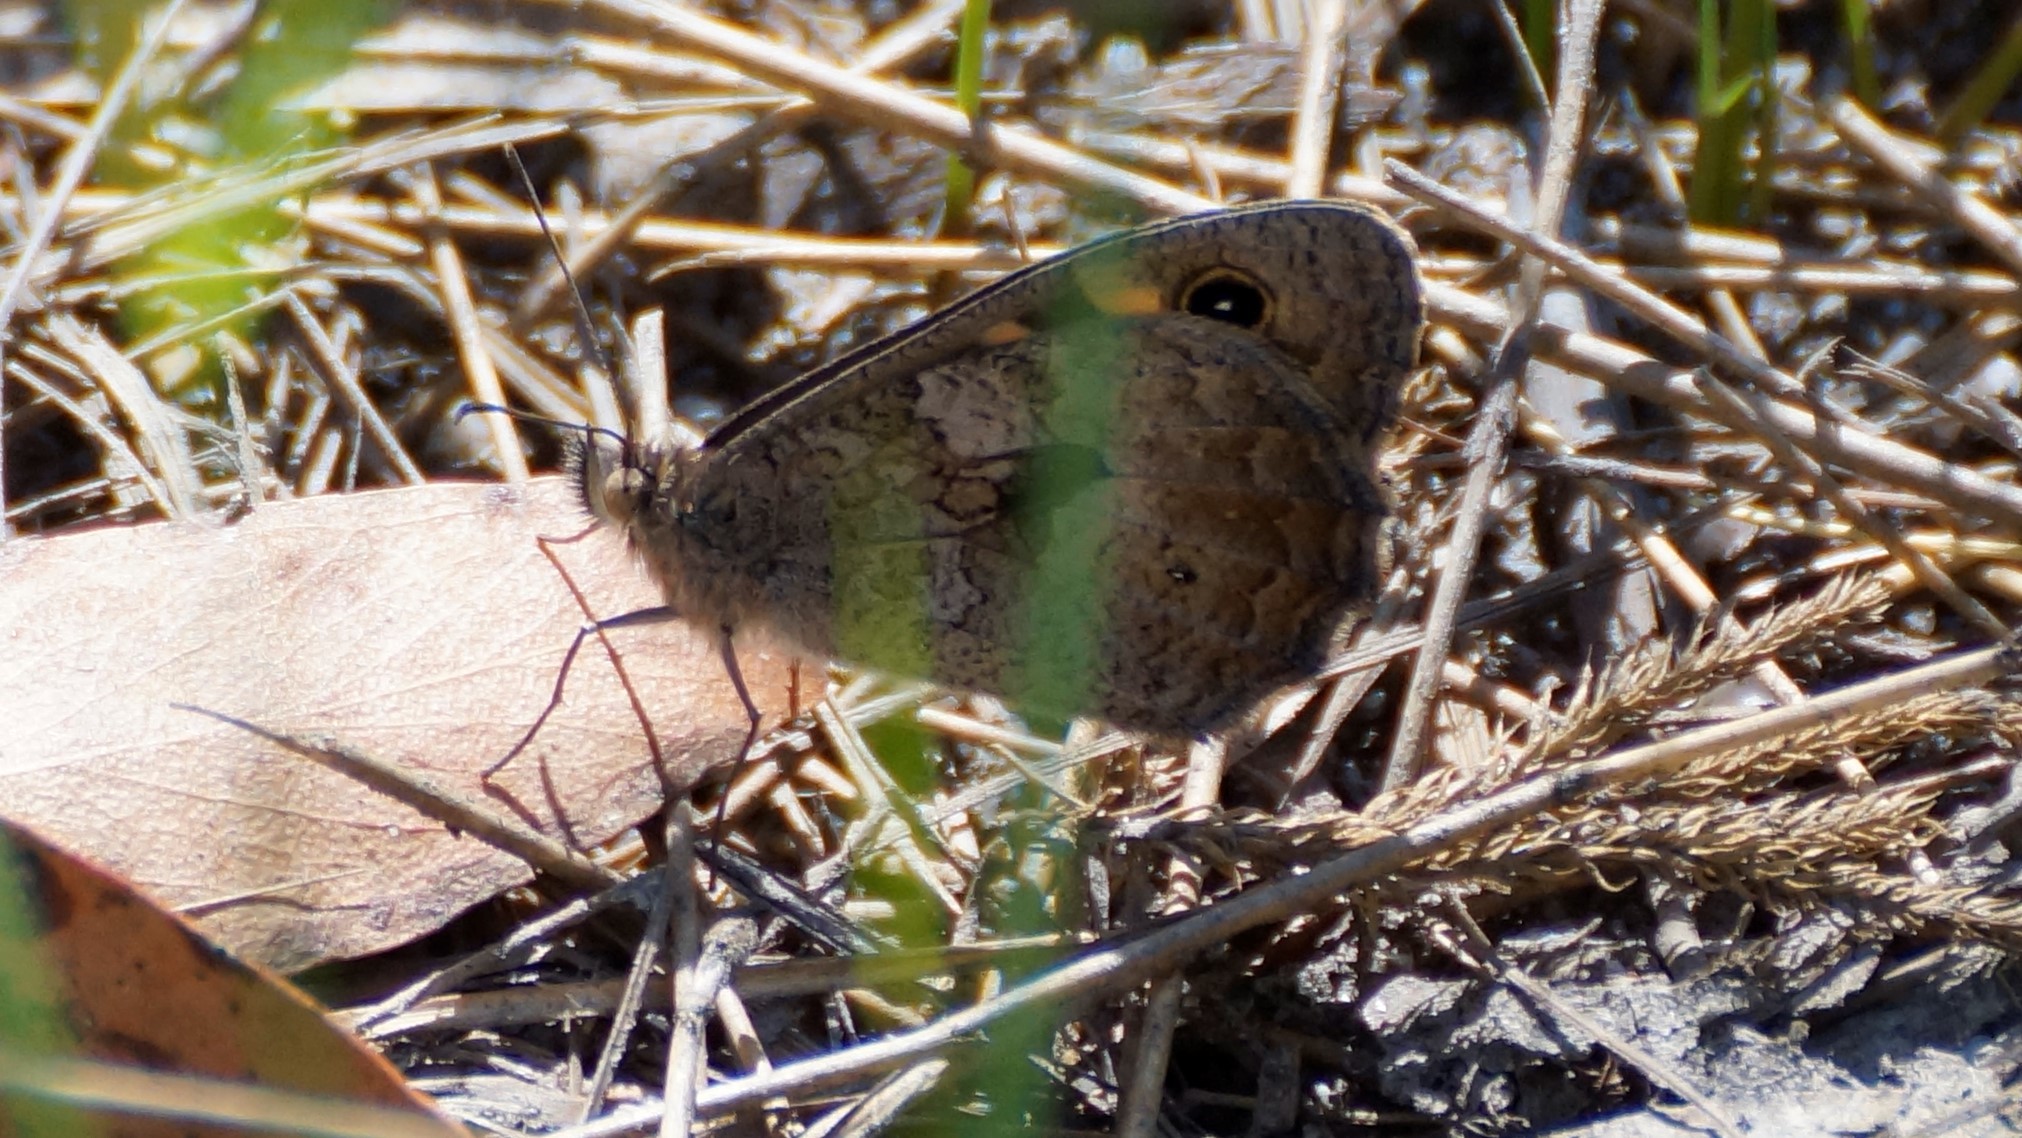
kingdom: Animalia
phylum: Arthropoda
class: Insecta
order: Lepidoptera
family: Nymphalidae
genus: Geitoneura
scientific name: Geitoneura klugii
